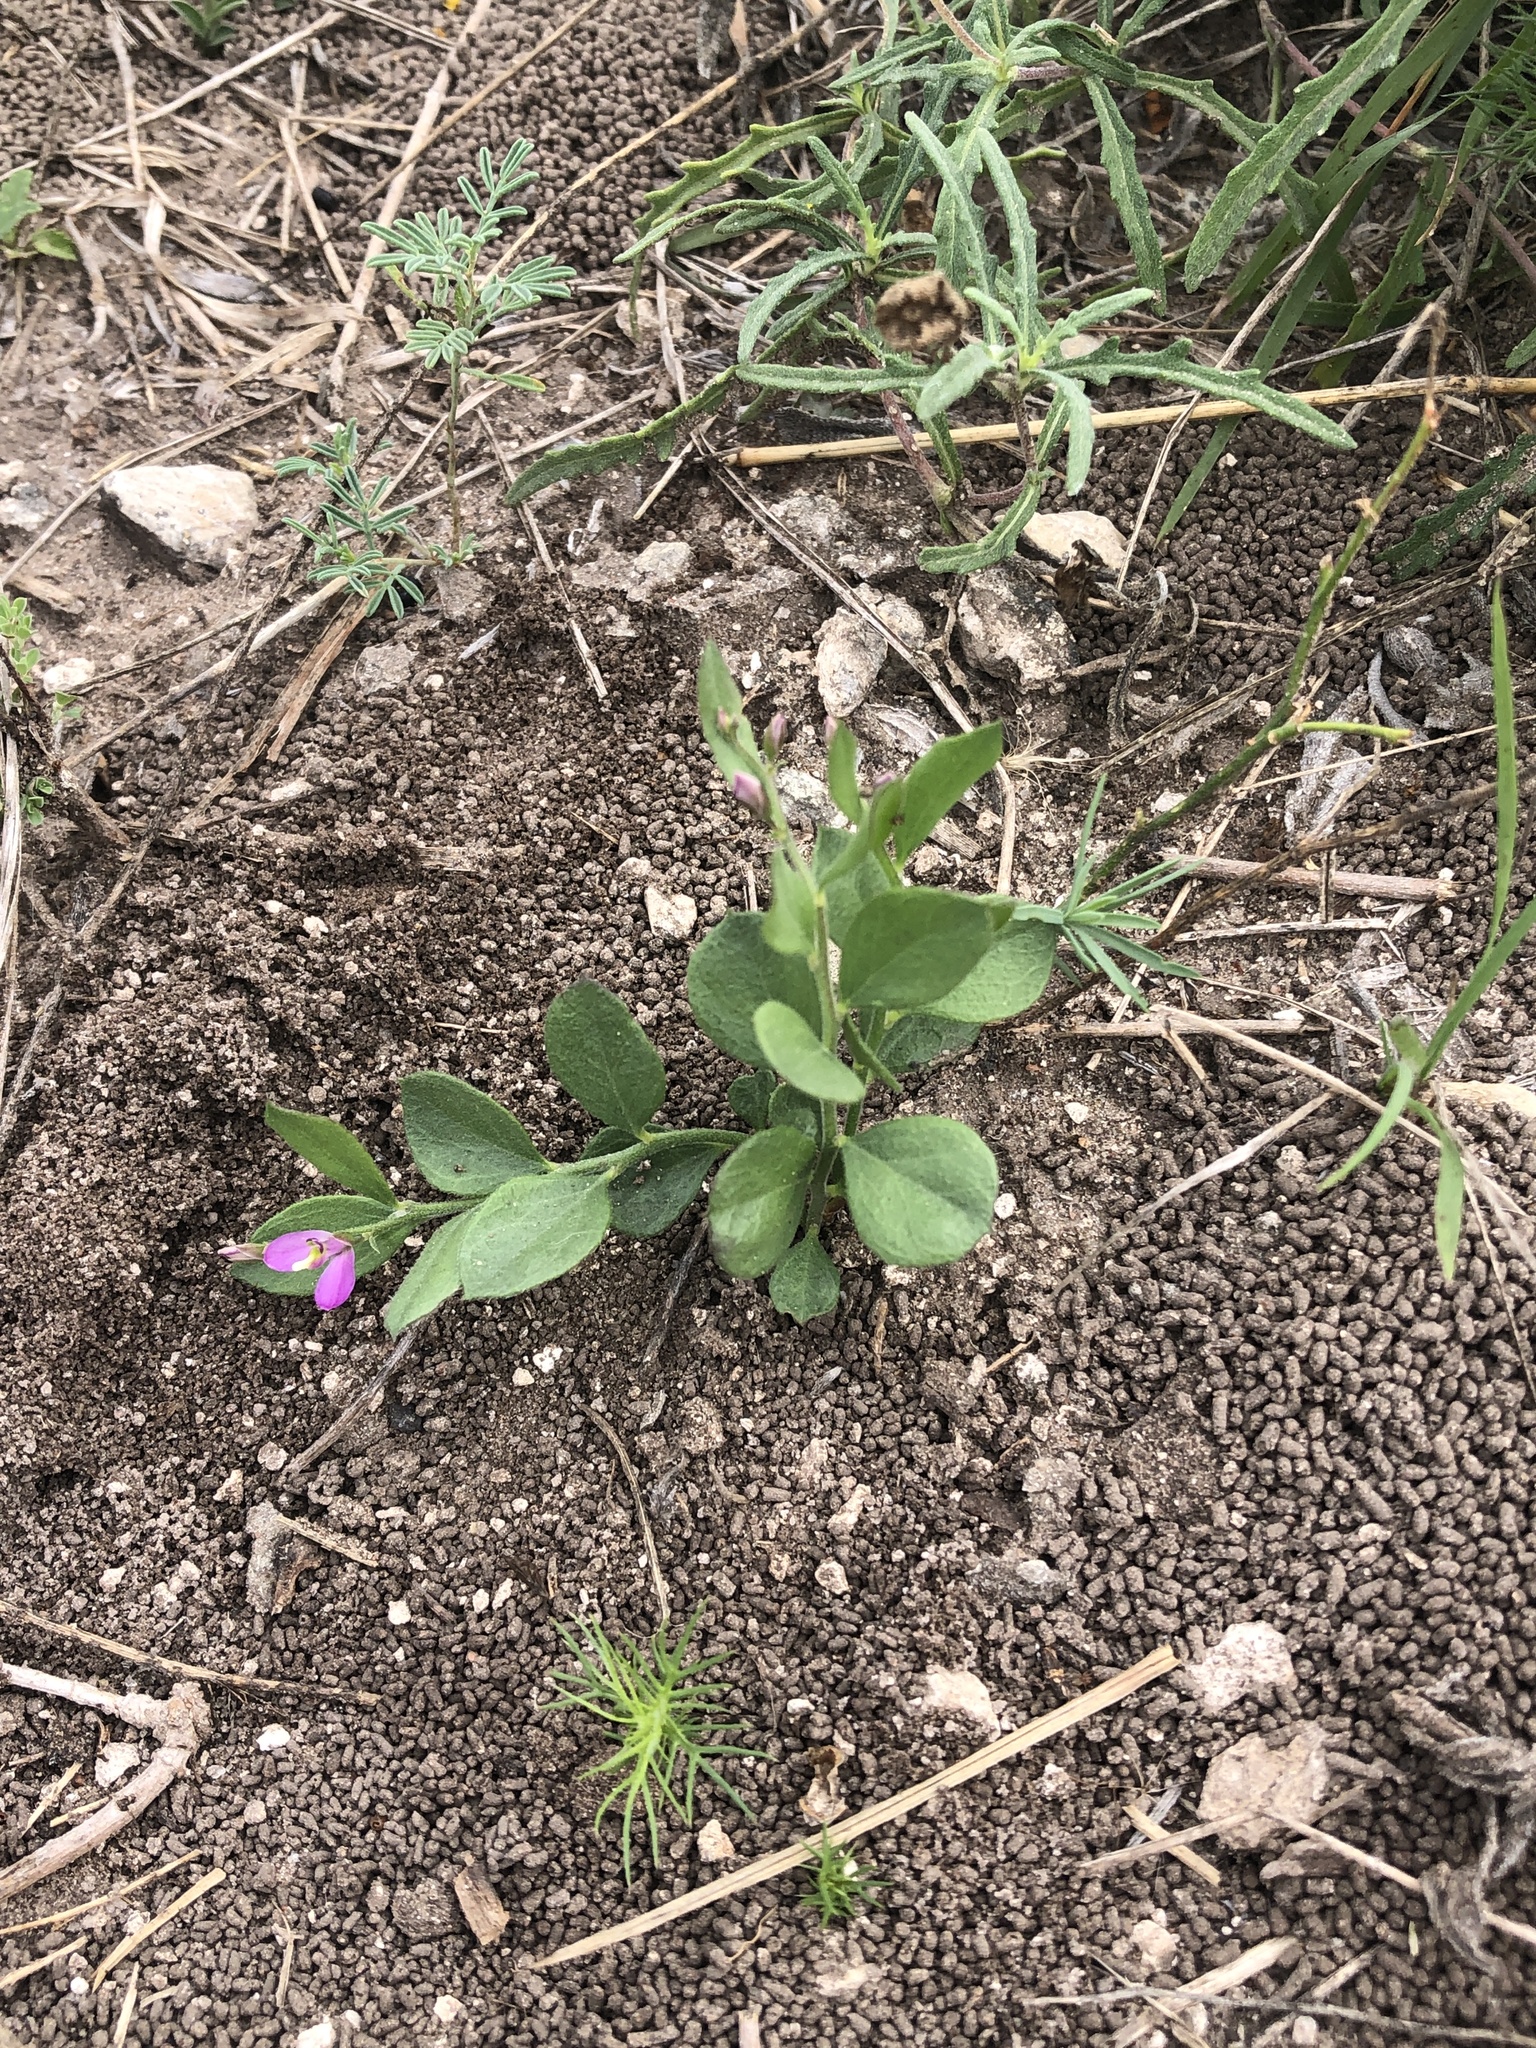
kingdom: Plantae
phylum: Tracheophyta
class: Magnoliopsida
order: Fabales
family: Polygalaceae
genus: Rhinotropis
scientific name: Rhinotropis nitida
